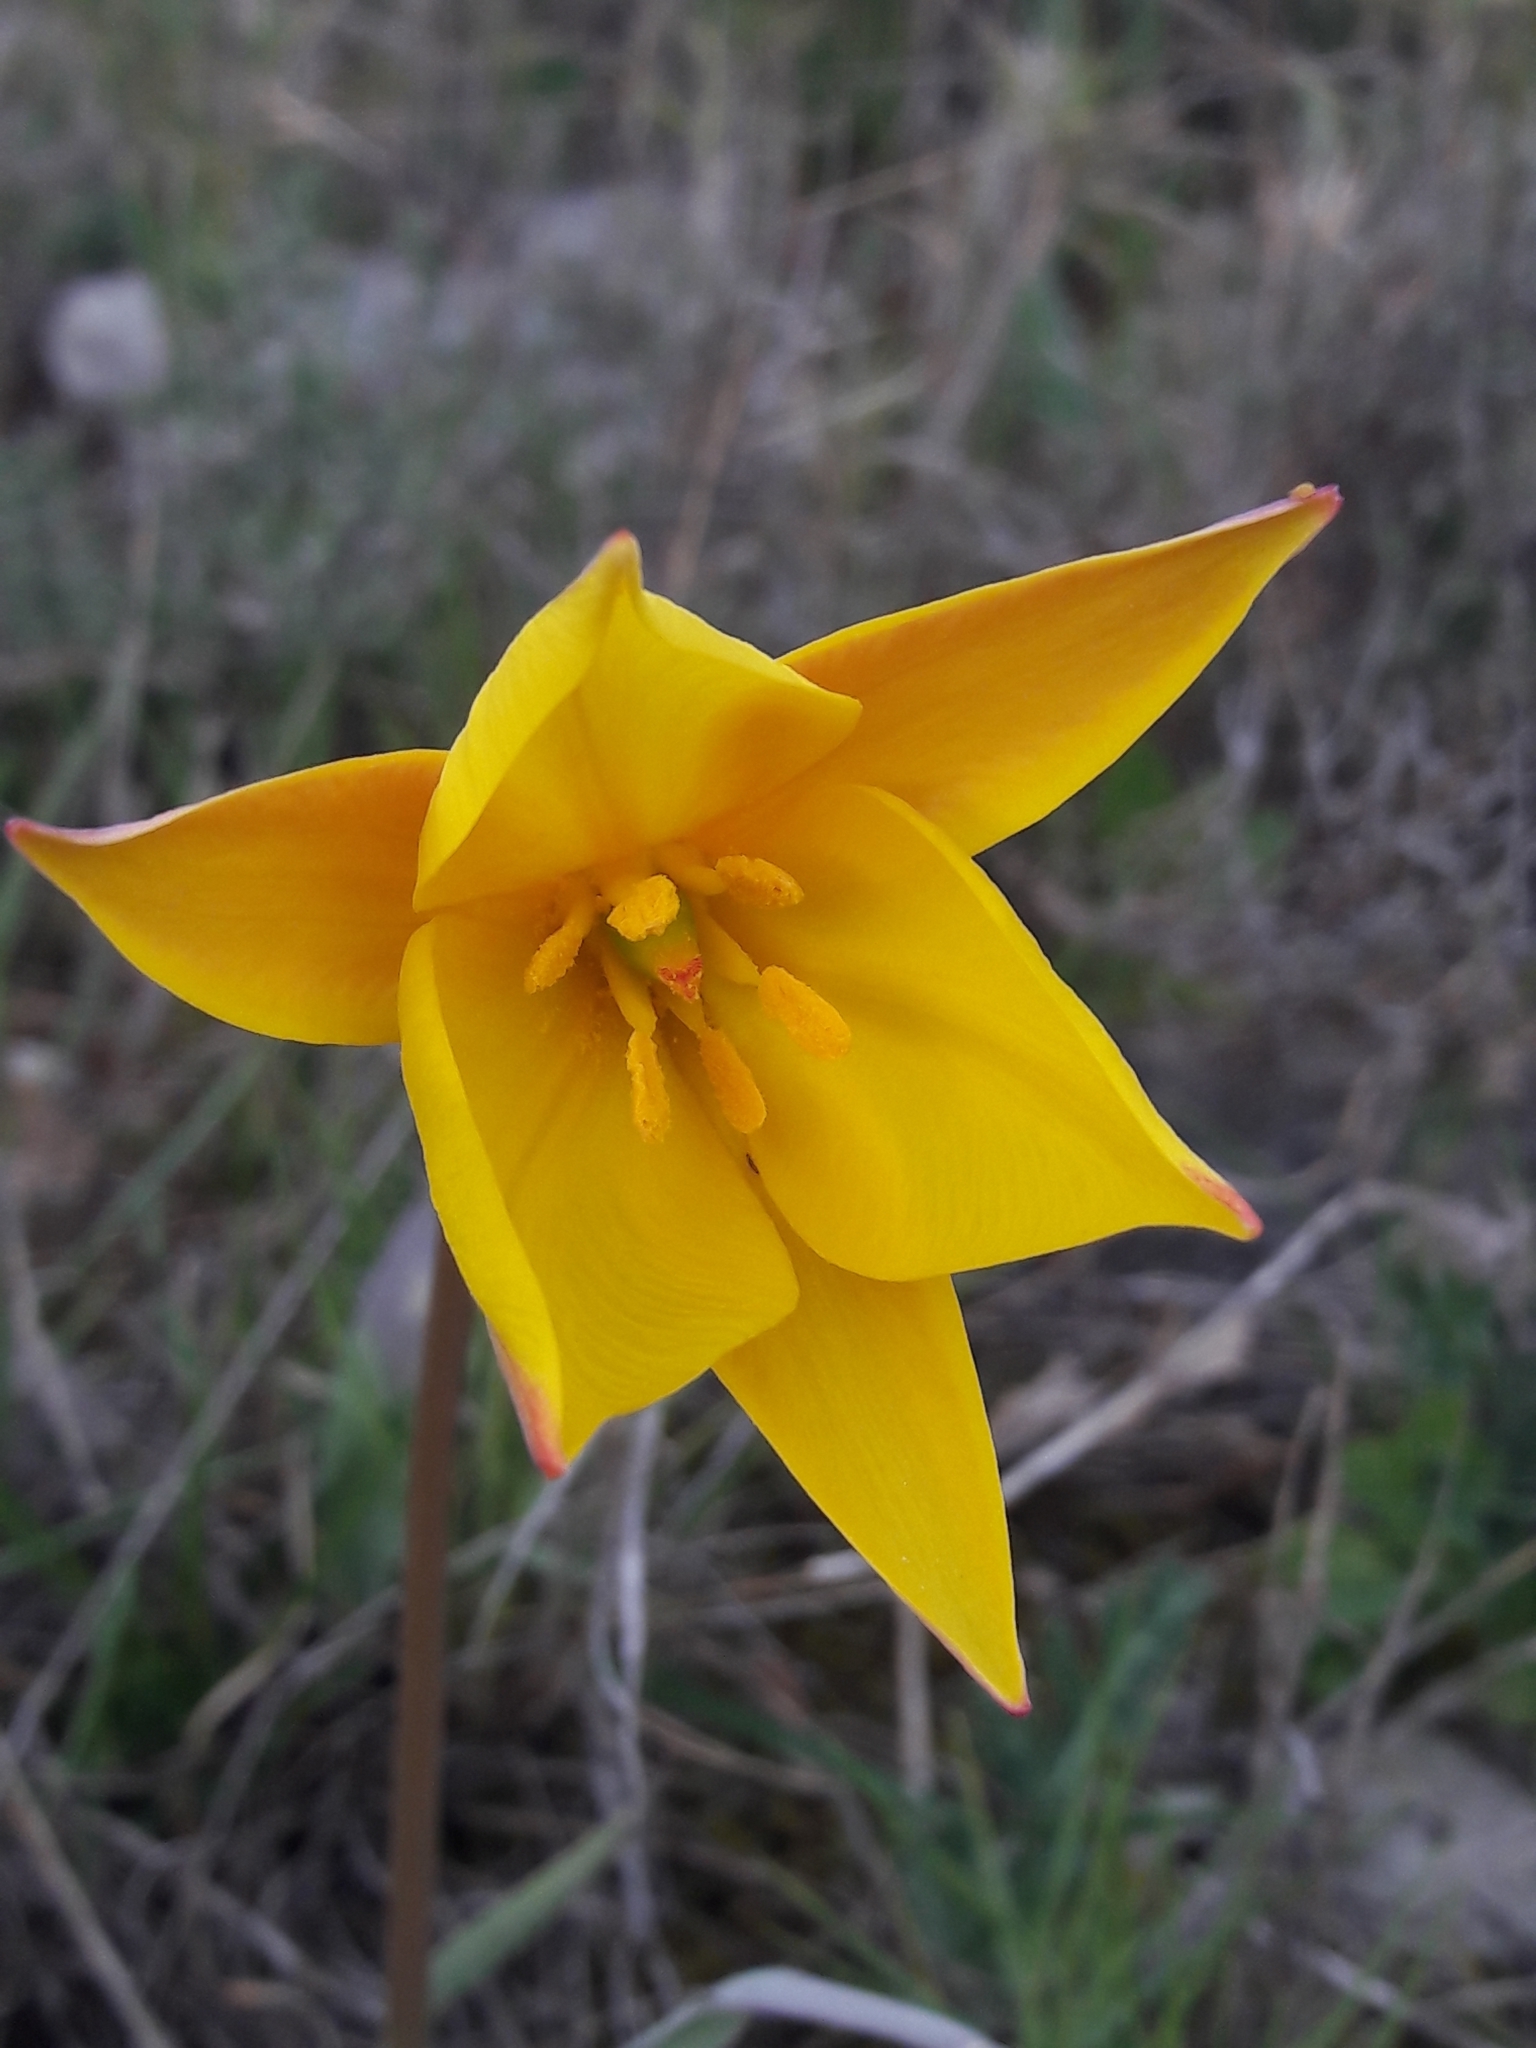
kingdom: Plantae
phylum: Tracheophyta
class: Liliopsida
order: Liliales
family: Liliaceae
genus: Tulipa
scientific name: Tulipa sylvestris
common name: Wild tulip
